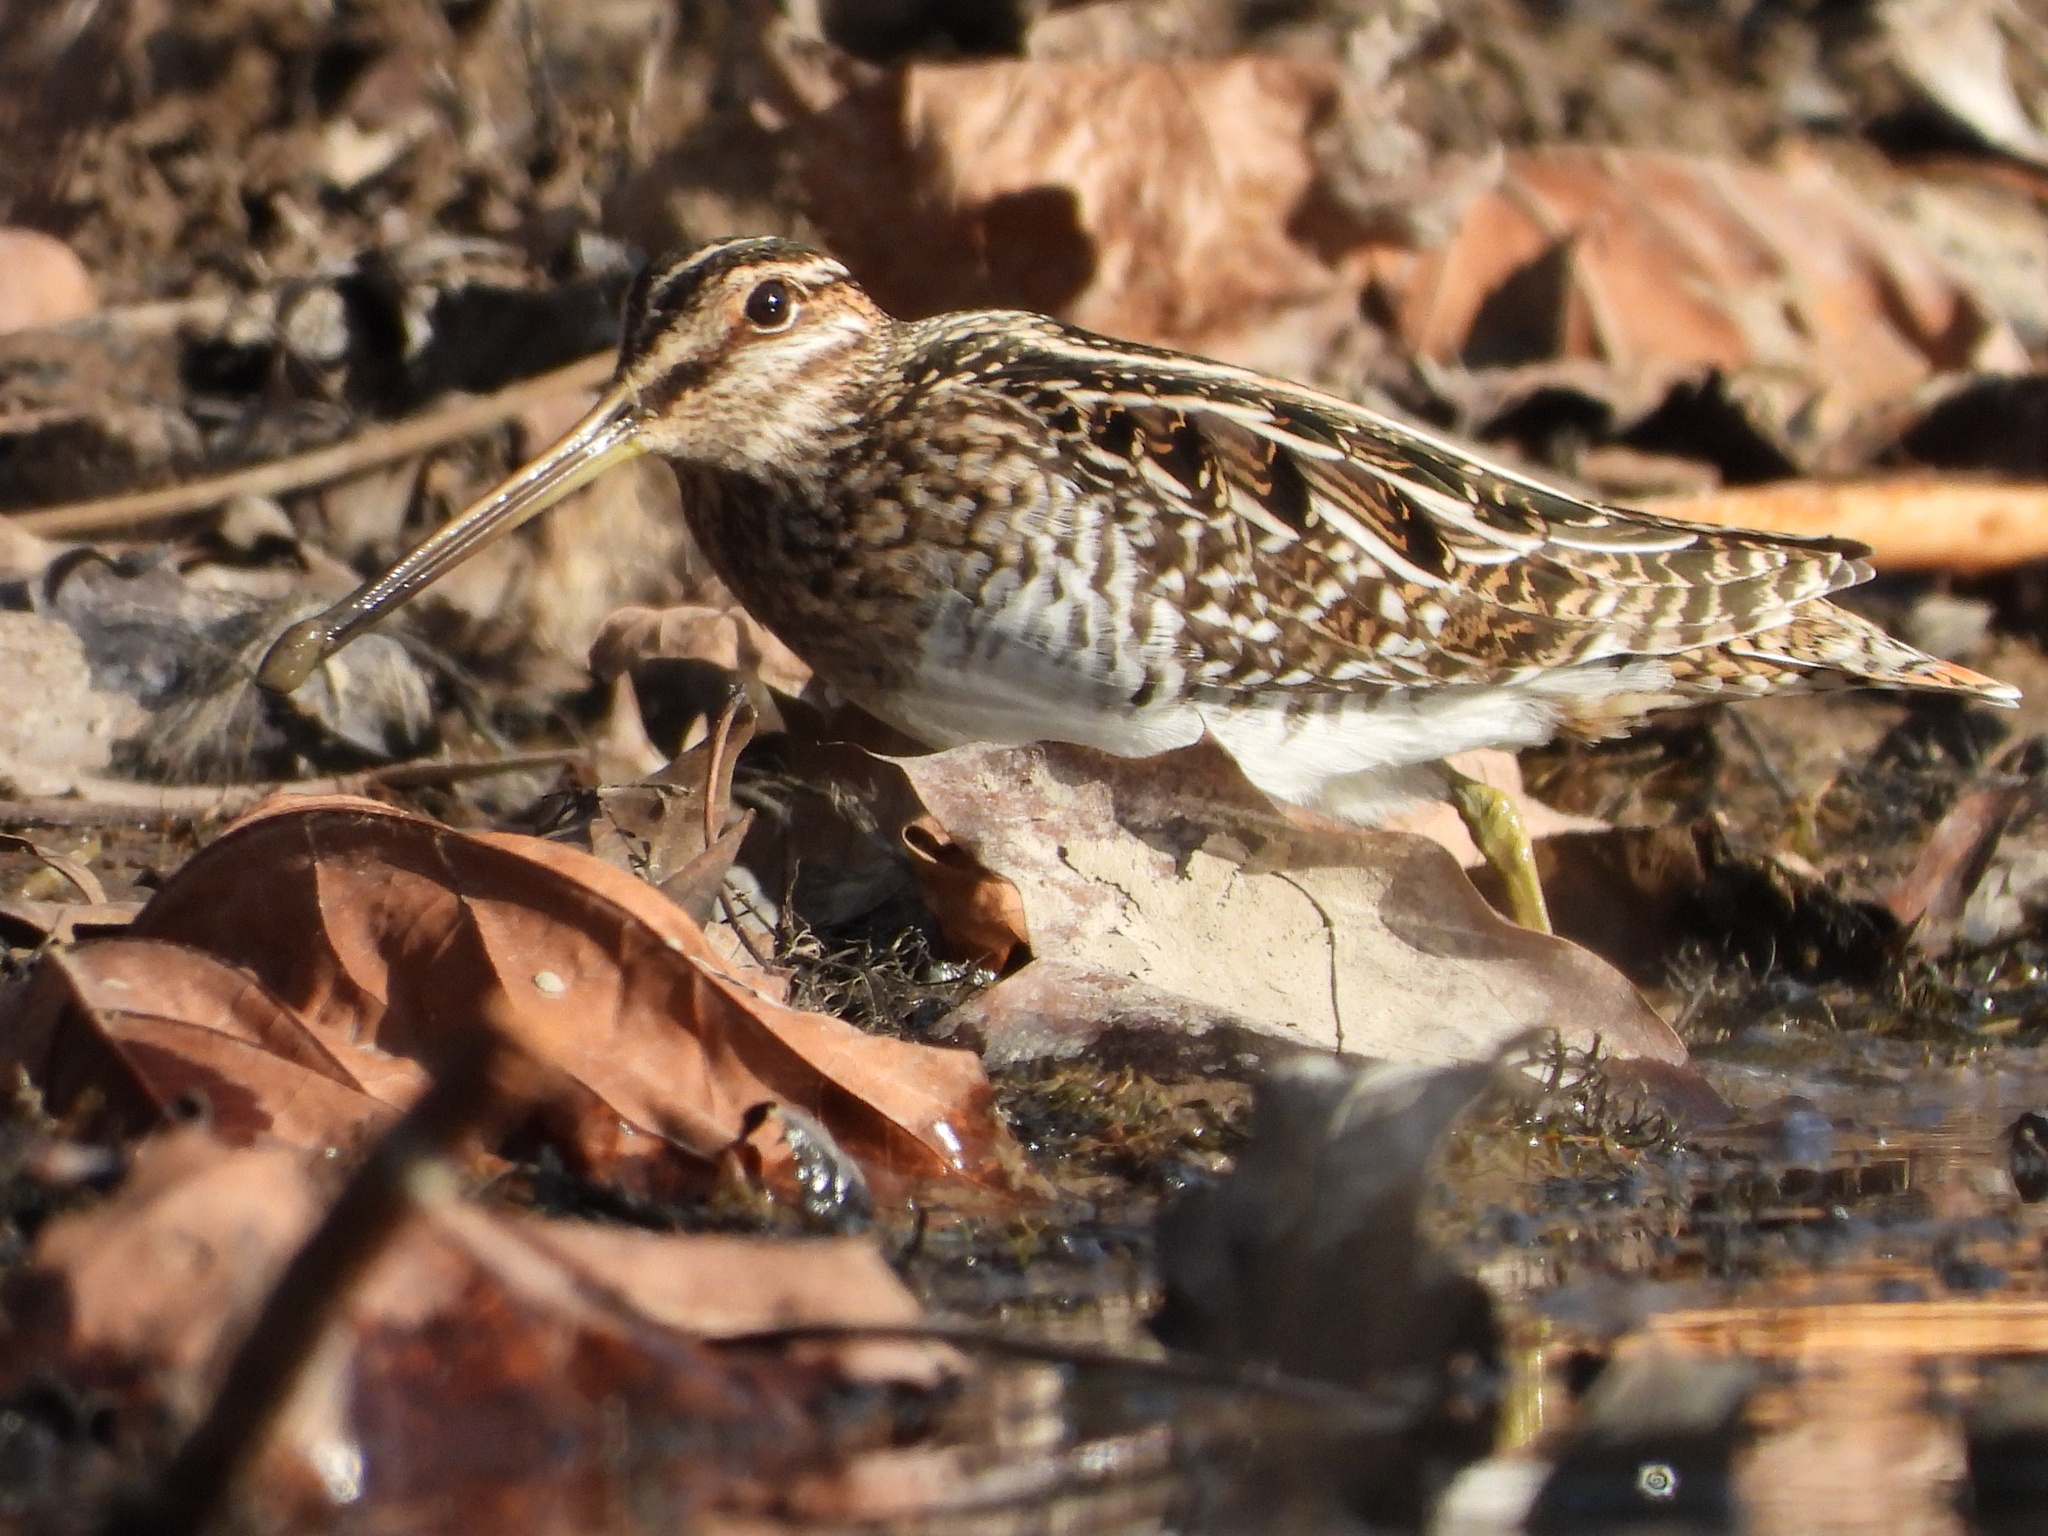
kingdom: Animalia
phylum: Chordata
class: Aves
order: Charadriiformes
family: Scolopacidae
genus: Gallinago
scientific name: Gallinago delicata
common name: Wilson's snipe
